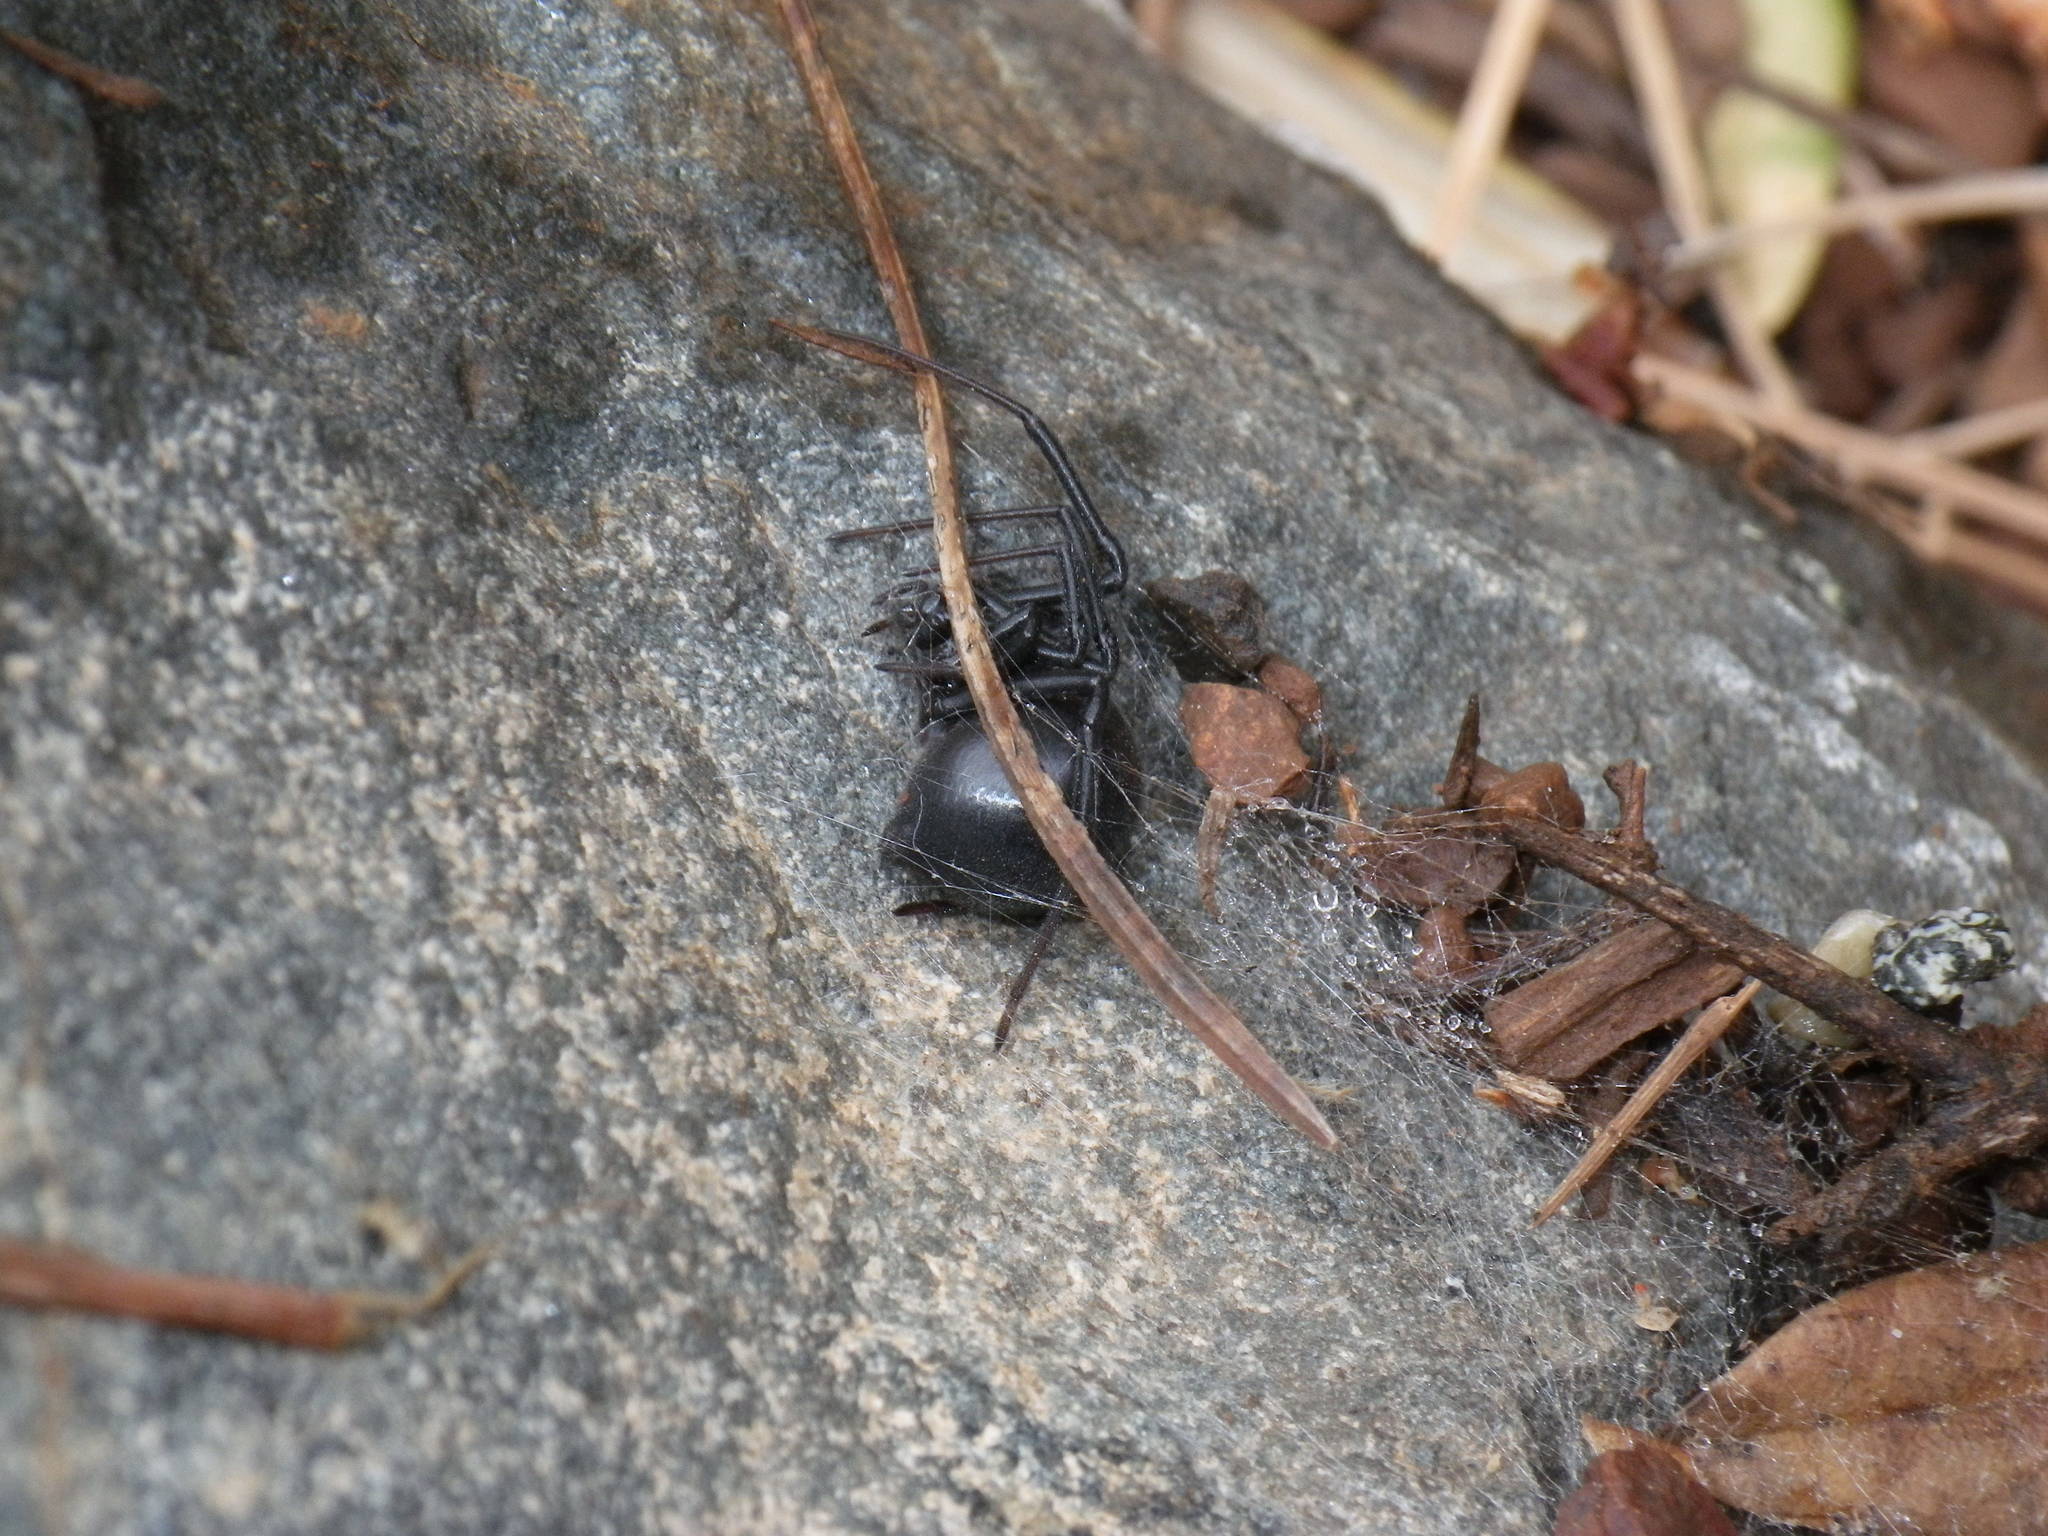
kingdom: Animalia
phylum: Arthropoda
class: Arachnida
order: Araneae
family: Theridiidae
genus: Latrodectus
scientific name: Latrodectus hesperus
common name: Western black widow
